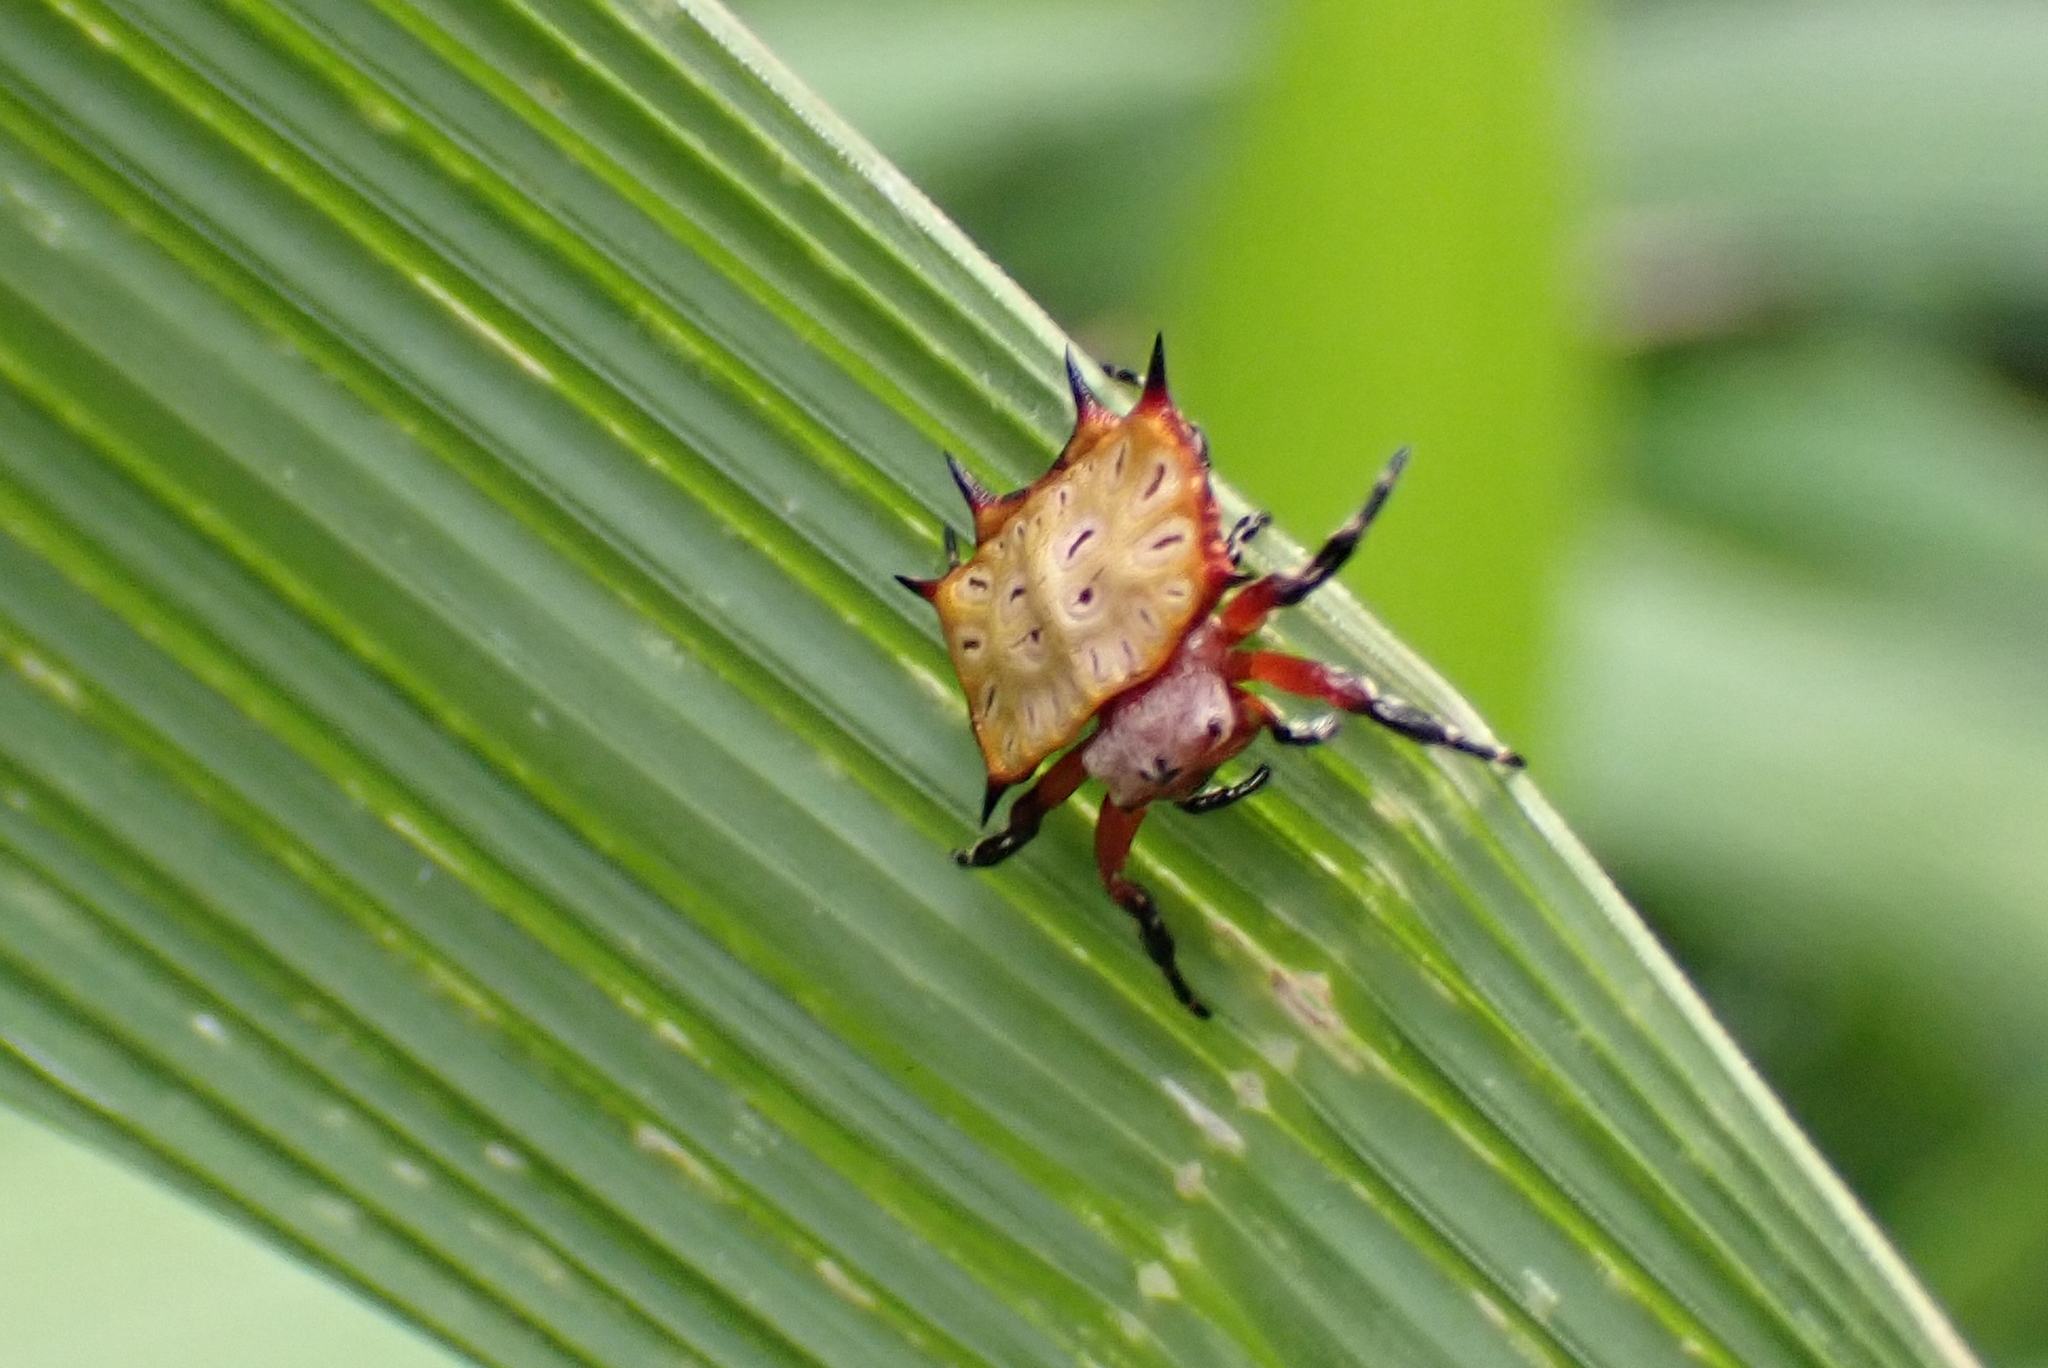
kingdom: Animalia
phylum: Arthropoda
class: Arachnida
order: Araneae
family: Araneidae
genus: Isoxya
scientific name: Isoxya tabulata
